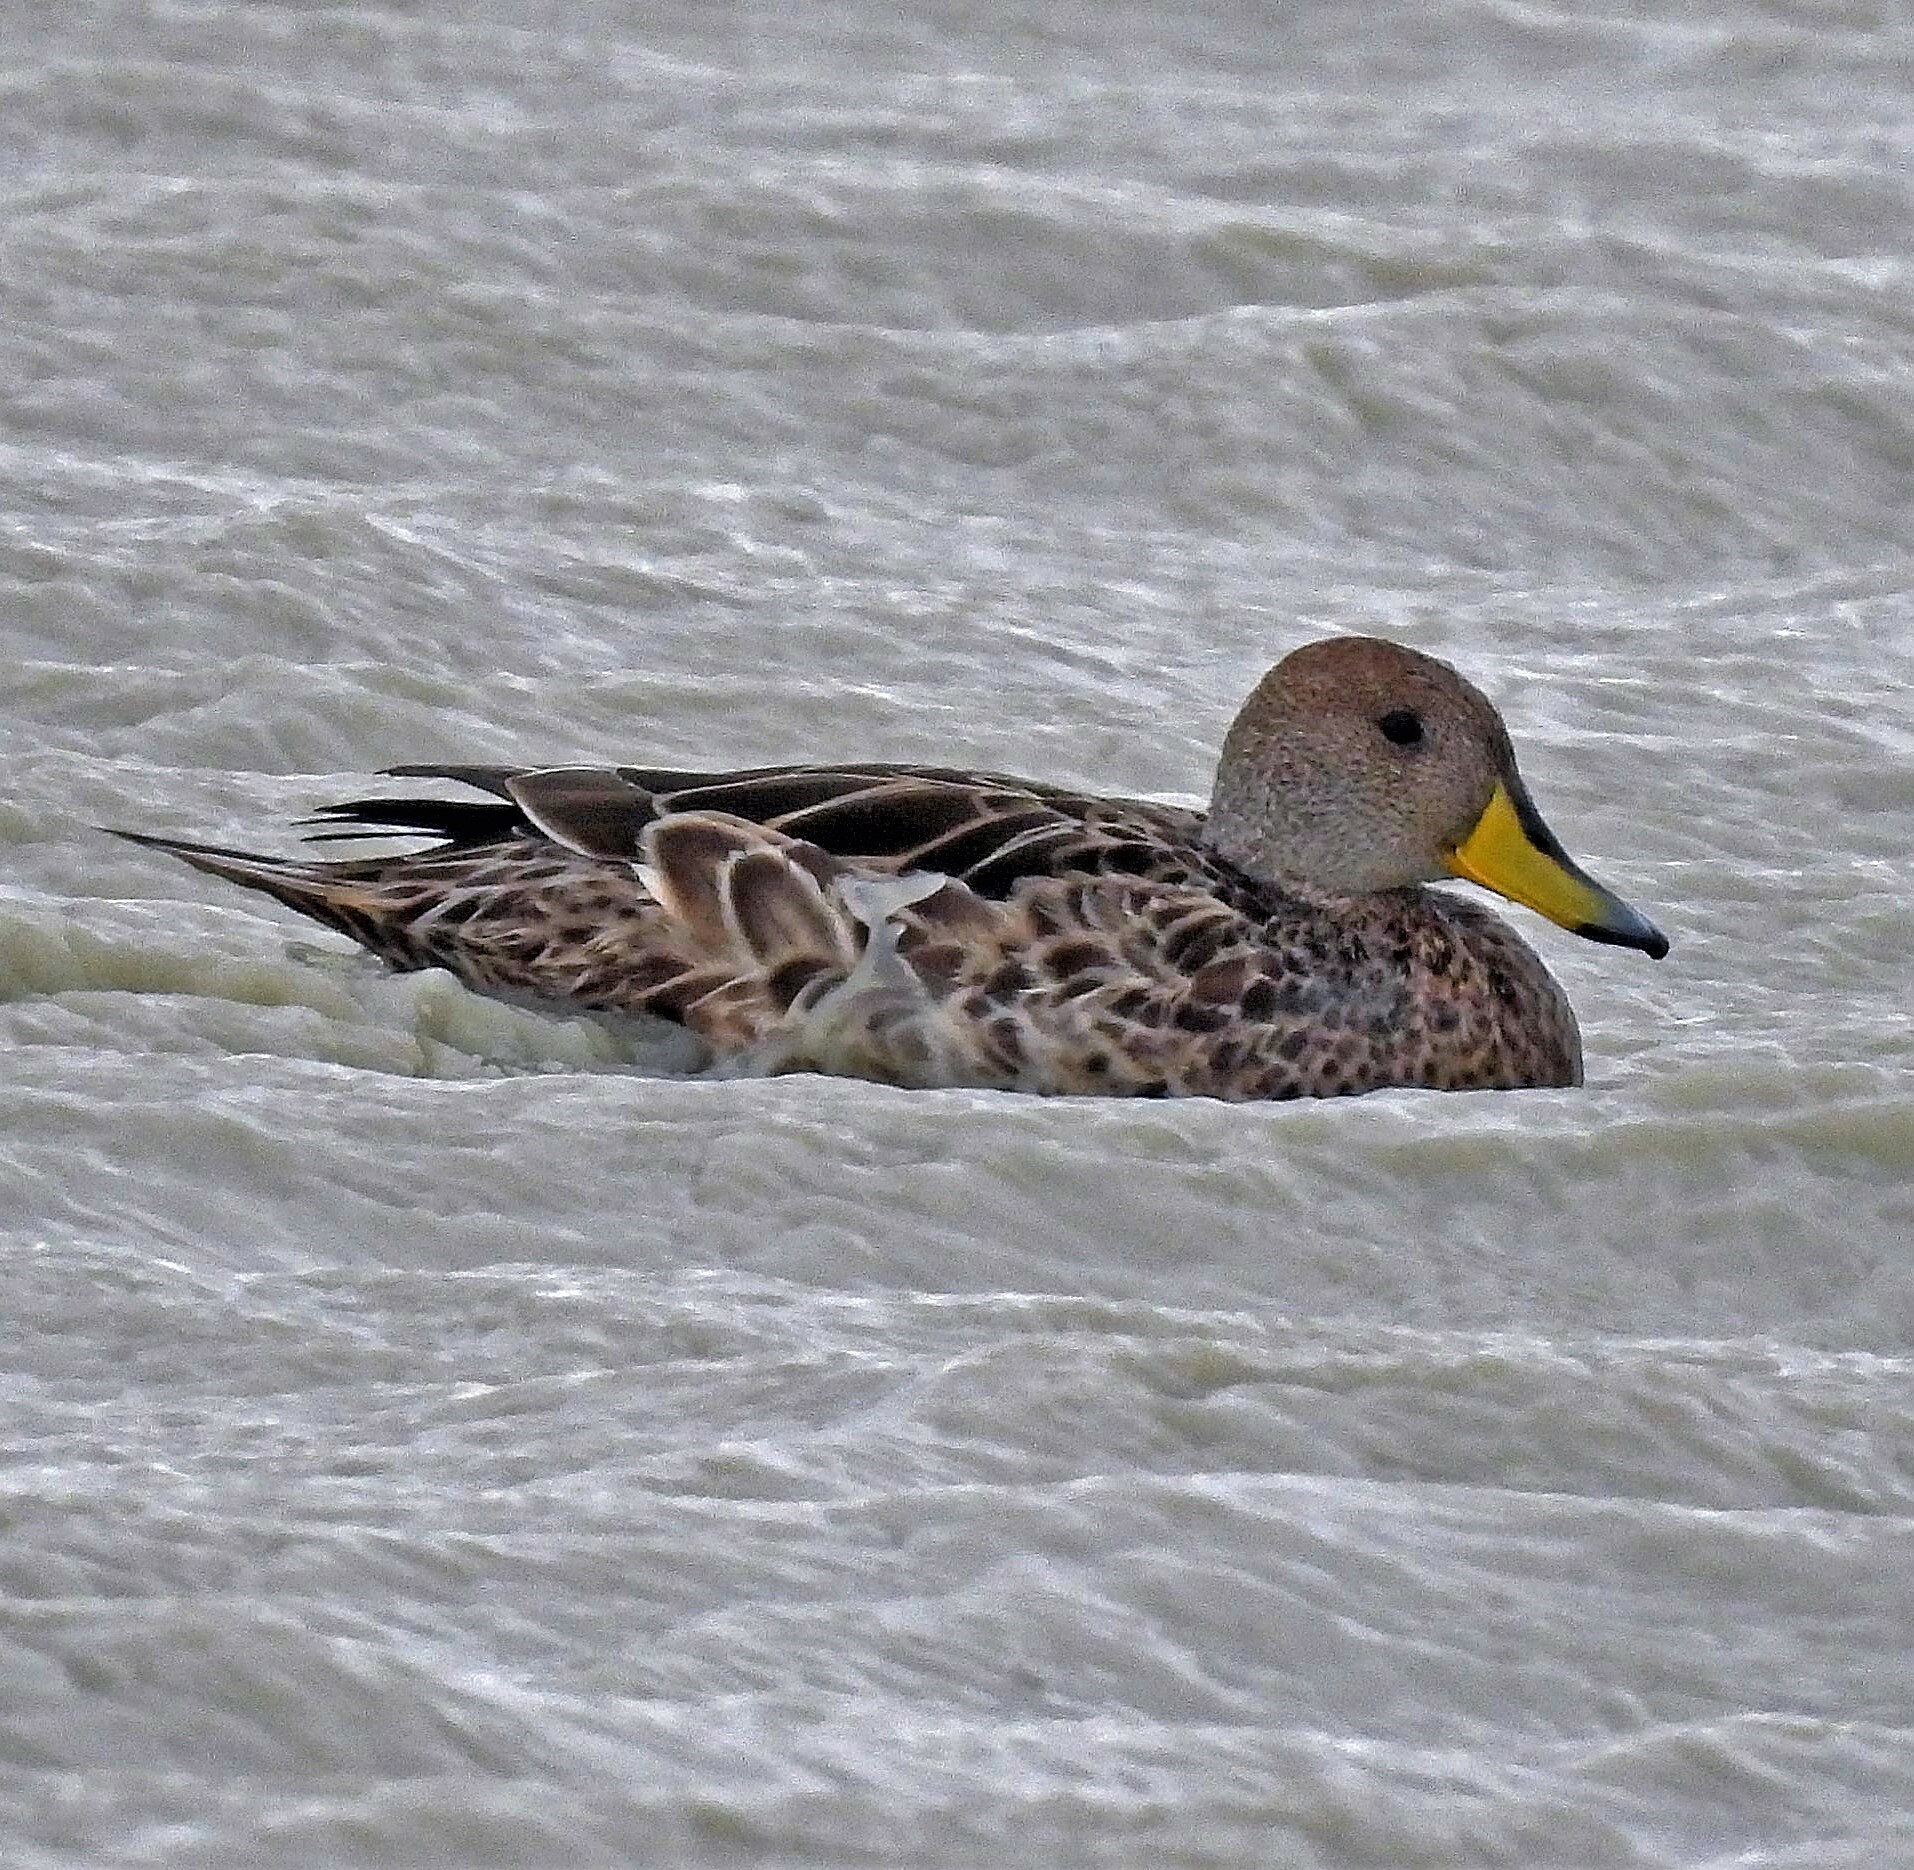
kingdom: Animalia
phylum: Chordata
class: Aves
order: Anseriformes
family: Anatidae
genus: Anas
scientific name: Anas georgica
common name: Yellow-billed pintail
